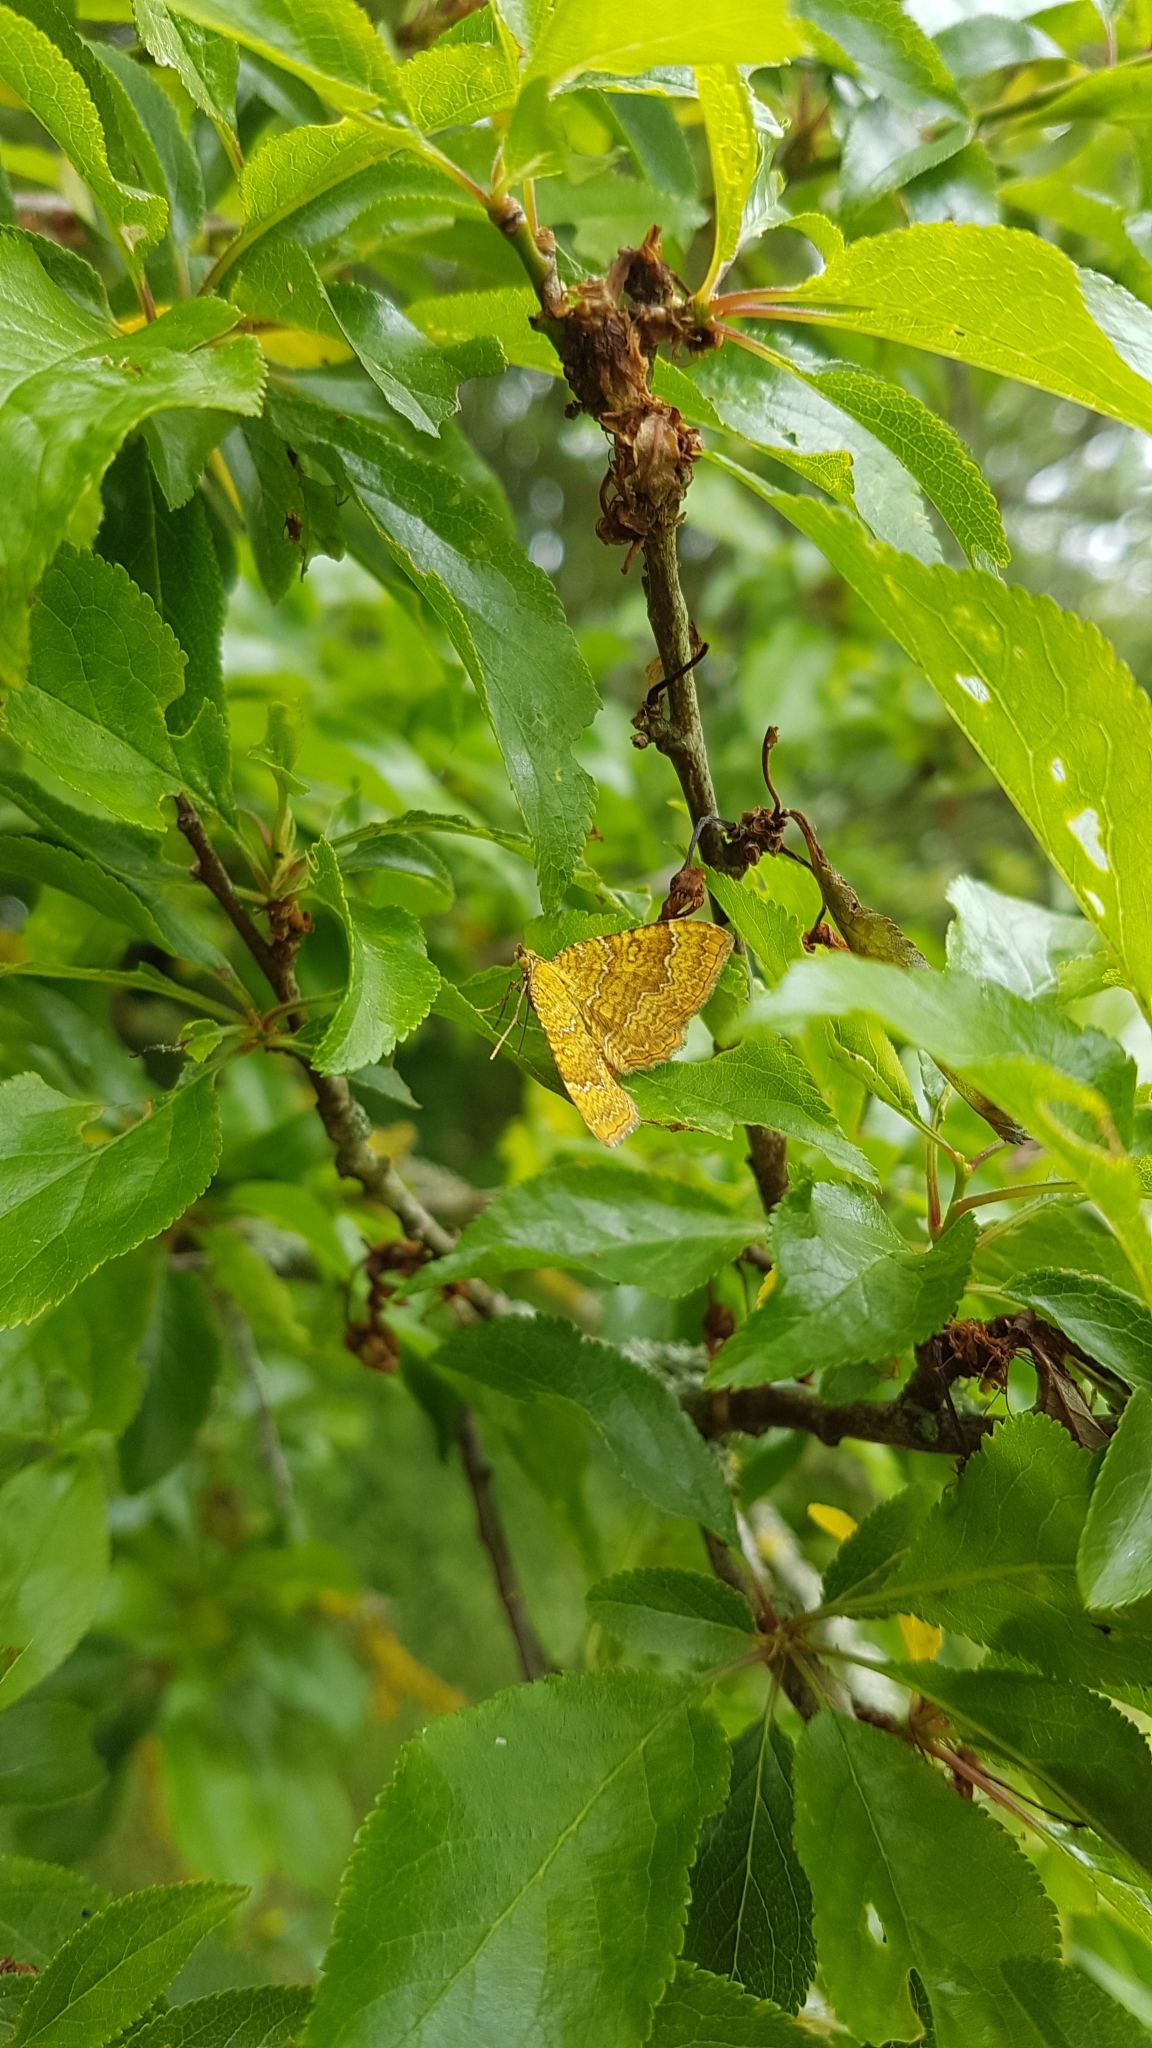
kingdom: Animalia
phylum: Arthropoda
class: Insecta
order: Lepidoptera
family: Geometridae
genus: Camptogramma
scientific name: Camptogramma bilineata
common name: Yellow shell
